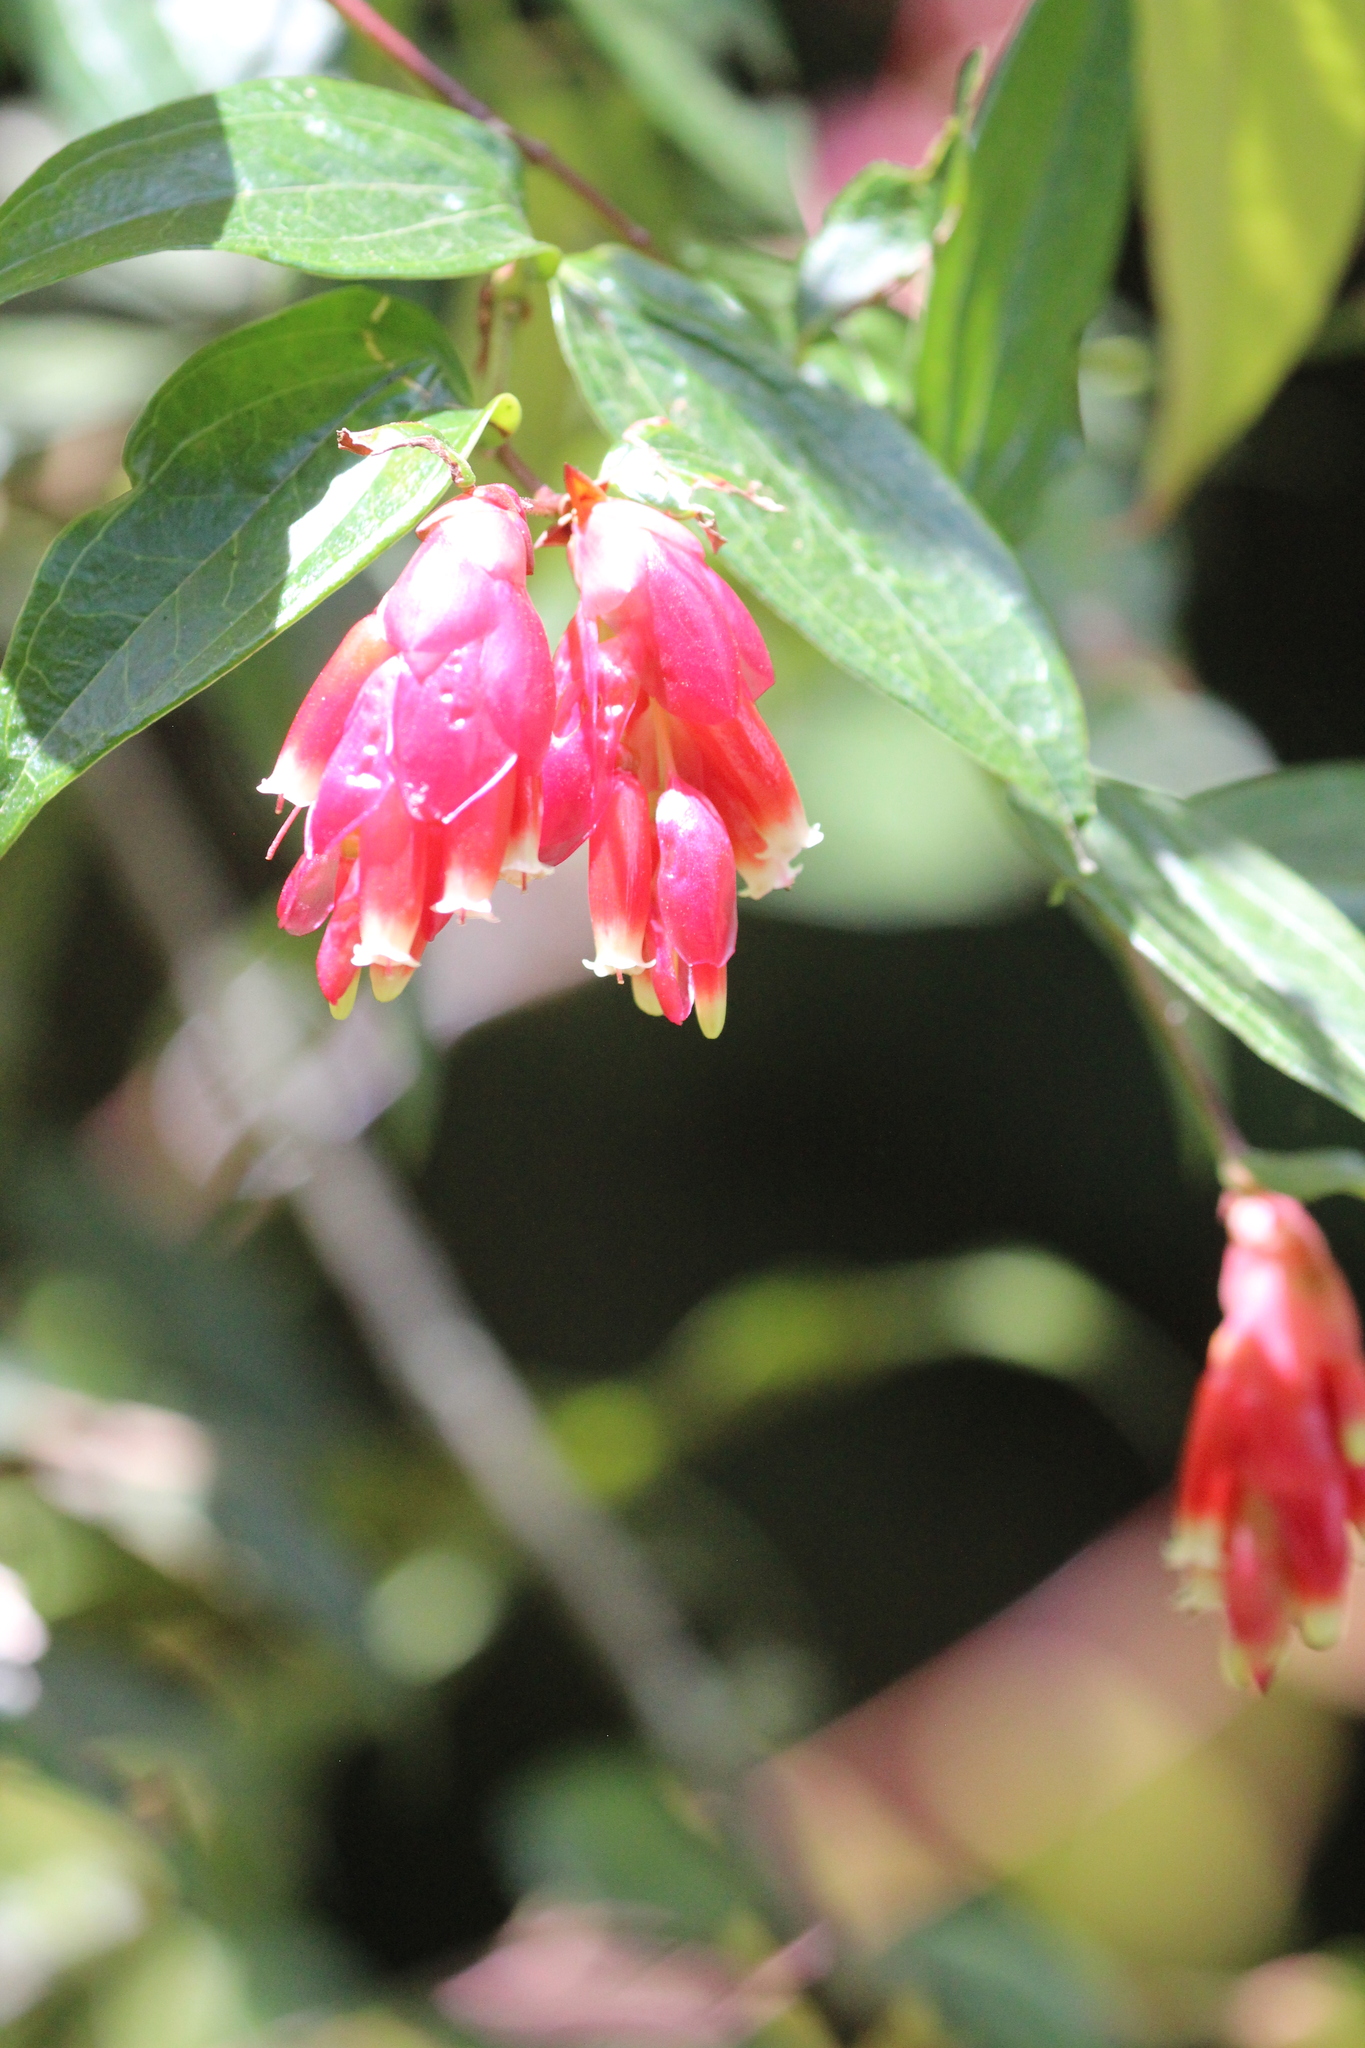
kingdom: Plantae
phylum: Tracheophyta
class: Magnoliopsida
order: Ericales
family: Ericaceae
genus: Cavendishia
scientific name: Cavendishia bracteata
